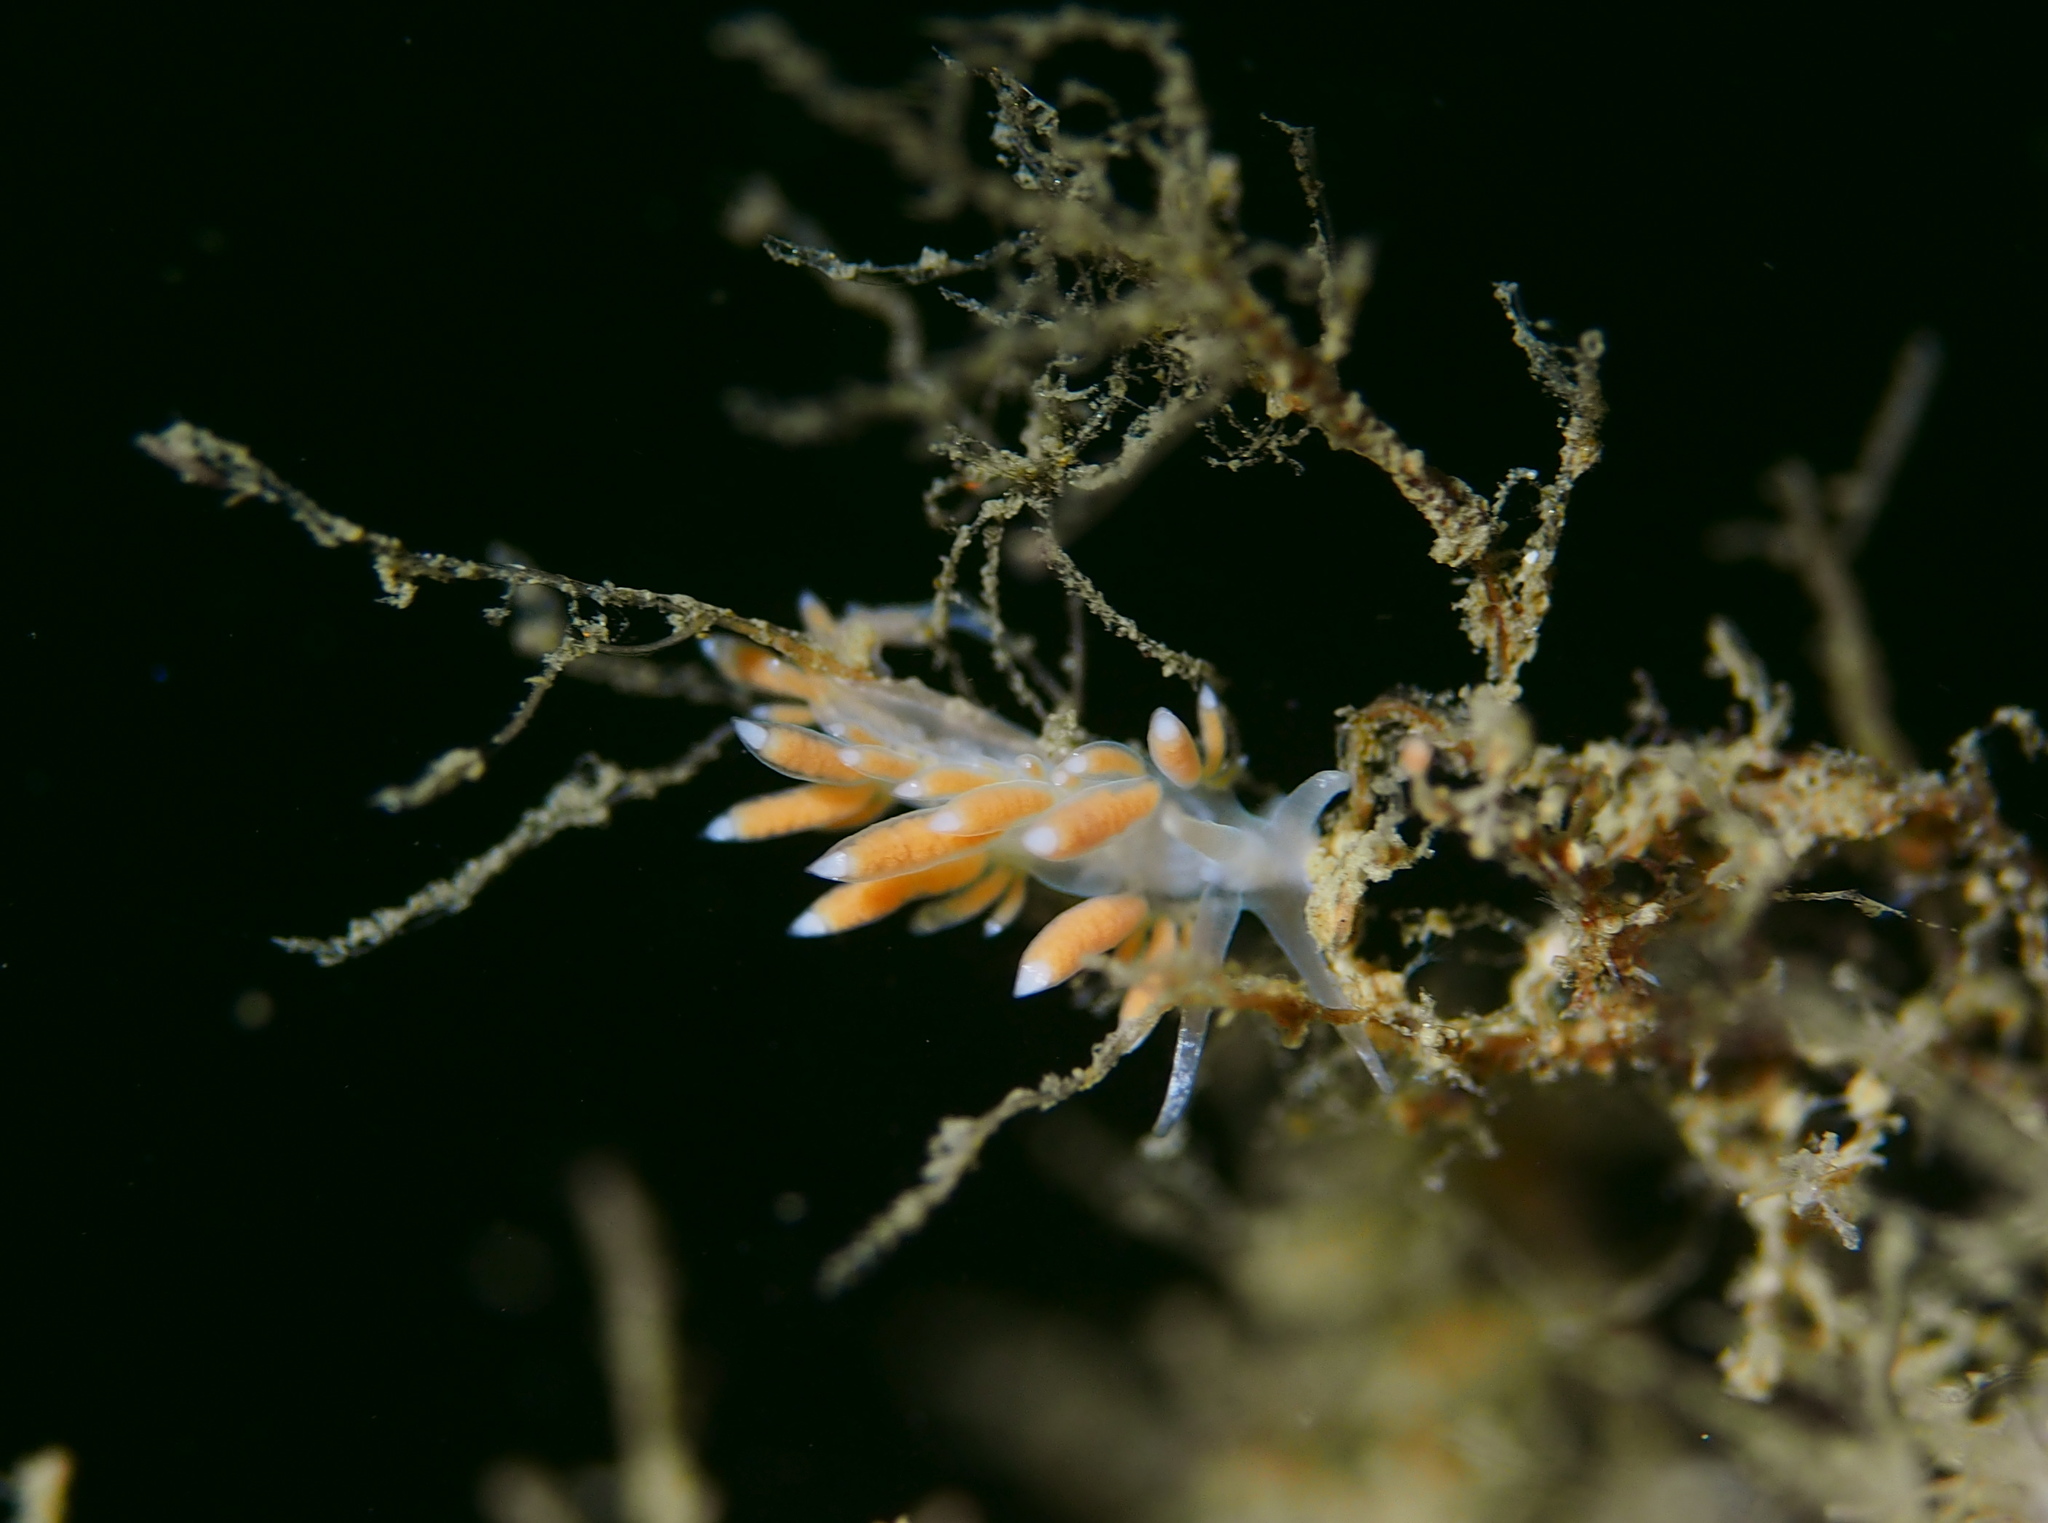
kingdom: Animalia
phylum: Mollusca
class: Gastropoda
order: Nudibranchia
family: Coryphellidae
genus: Coryphella
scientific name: Coryphella gracilis
